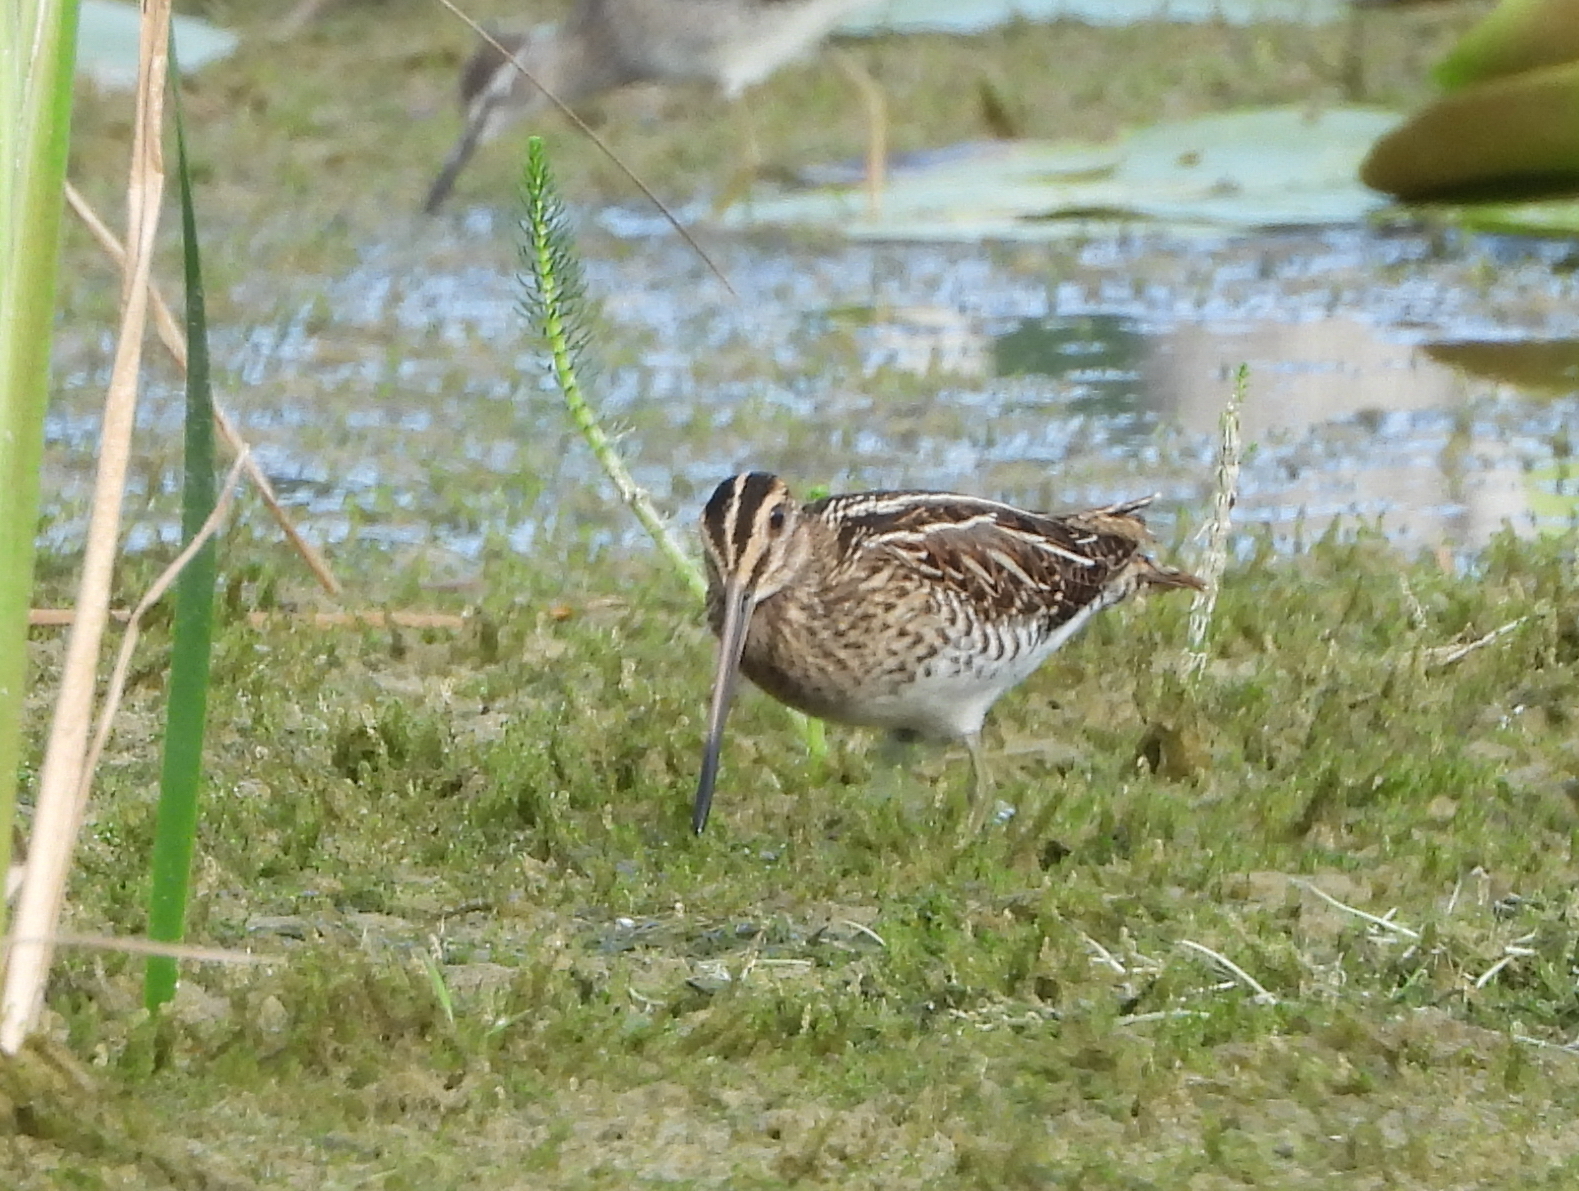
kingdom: Animalia
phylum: Chordata
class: Aves
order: Charadriiformes
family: Scolopacidae
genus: Gallinago
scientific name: Gallinago gallinago
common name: Common snipe
